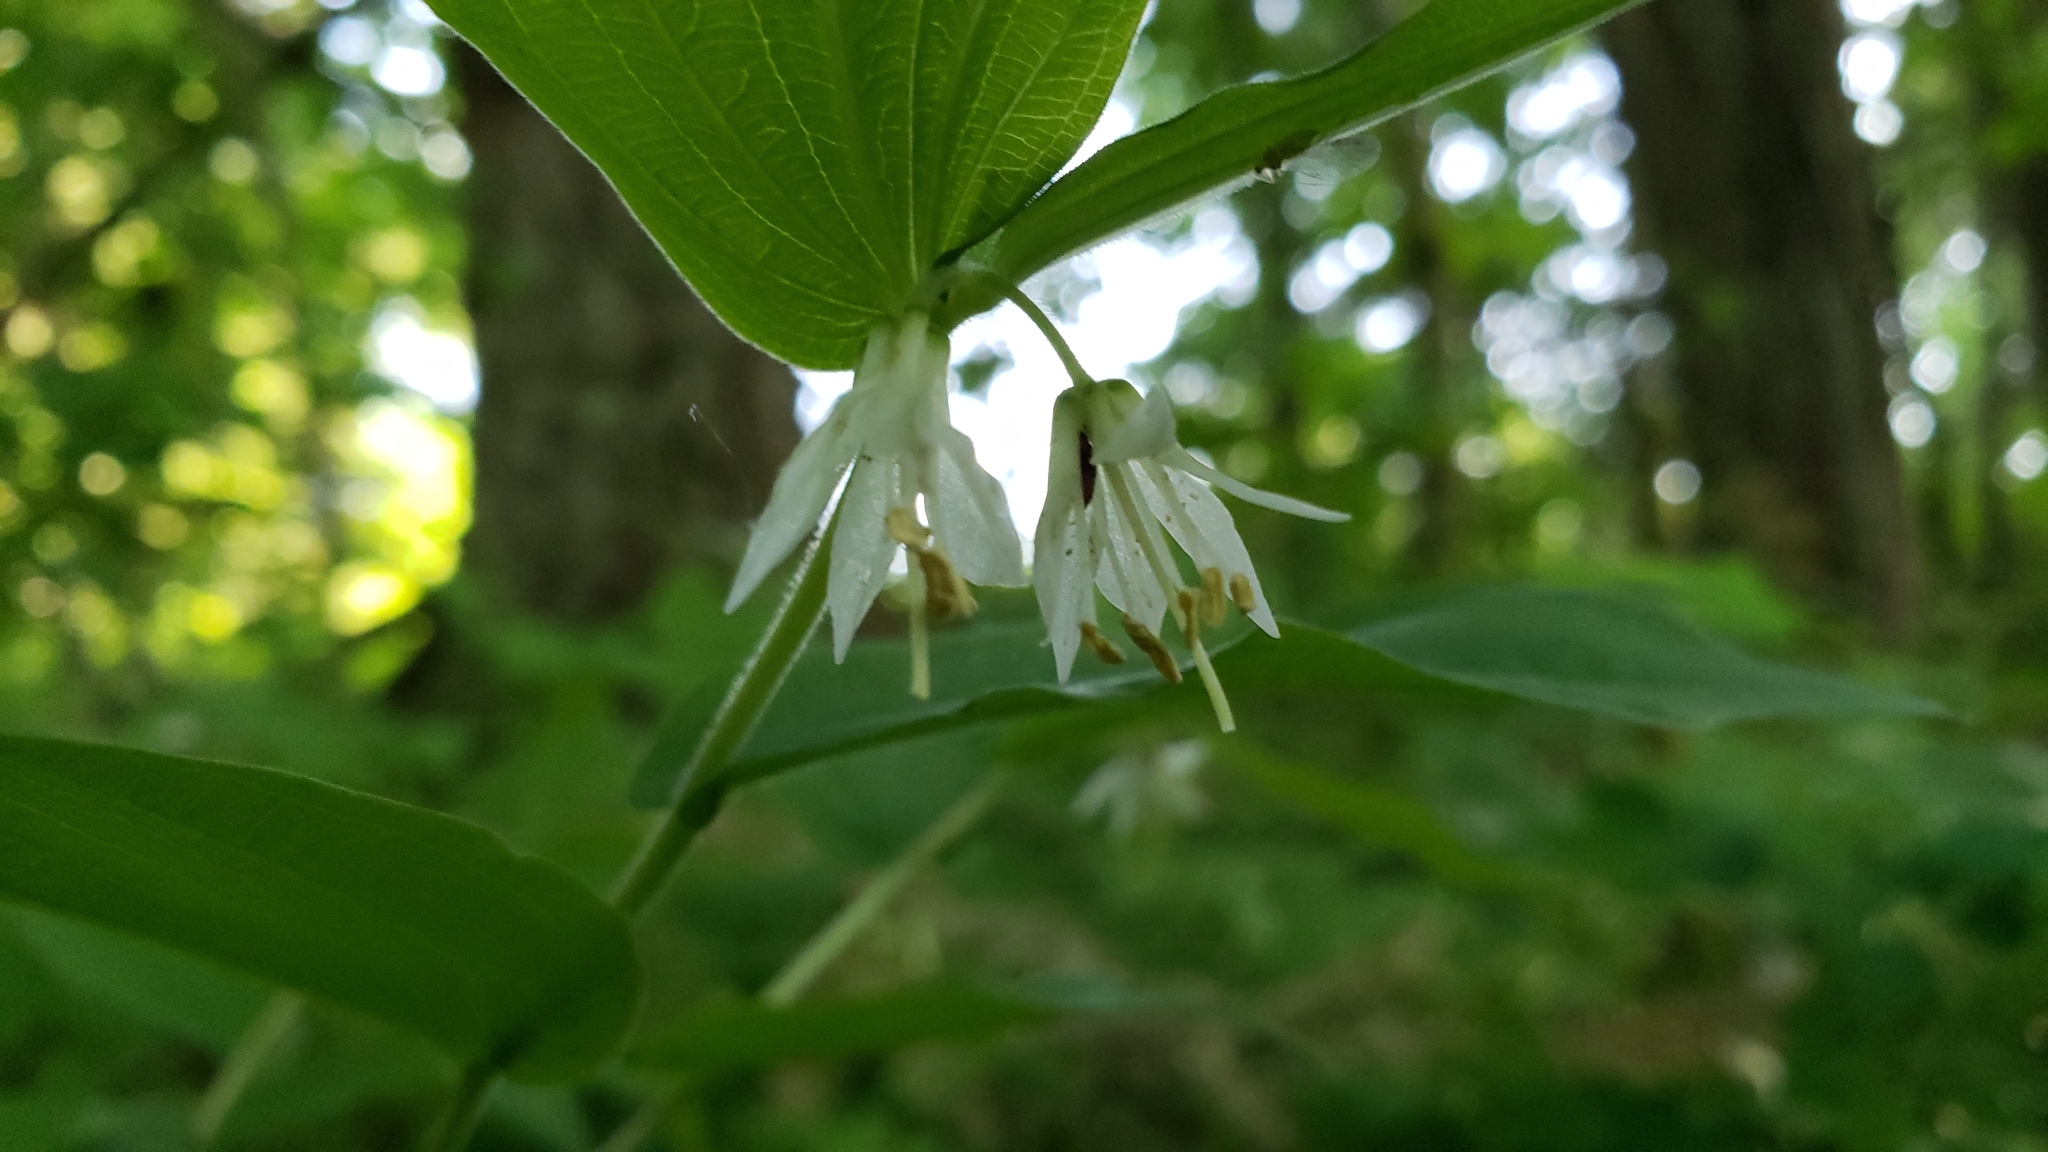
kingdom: Plantae
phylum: Tracheophyta
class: Liliopsida
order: Liliales
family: Liliaceae
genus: Prosartes
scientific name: Prosartes hookeri
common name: Fairy-bells
